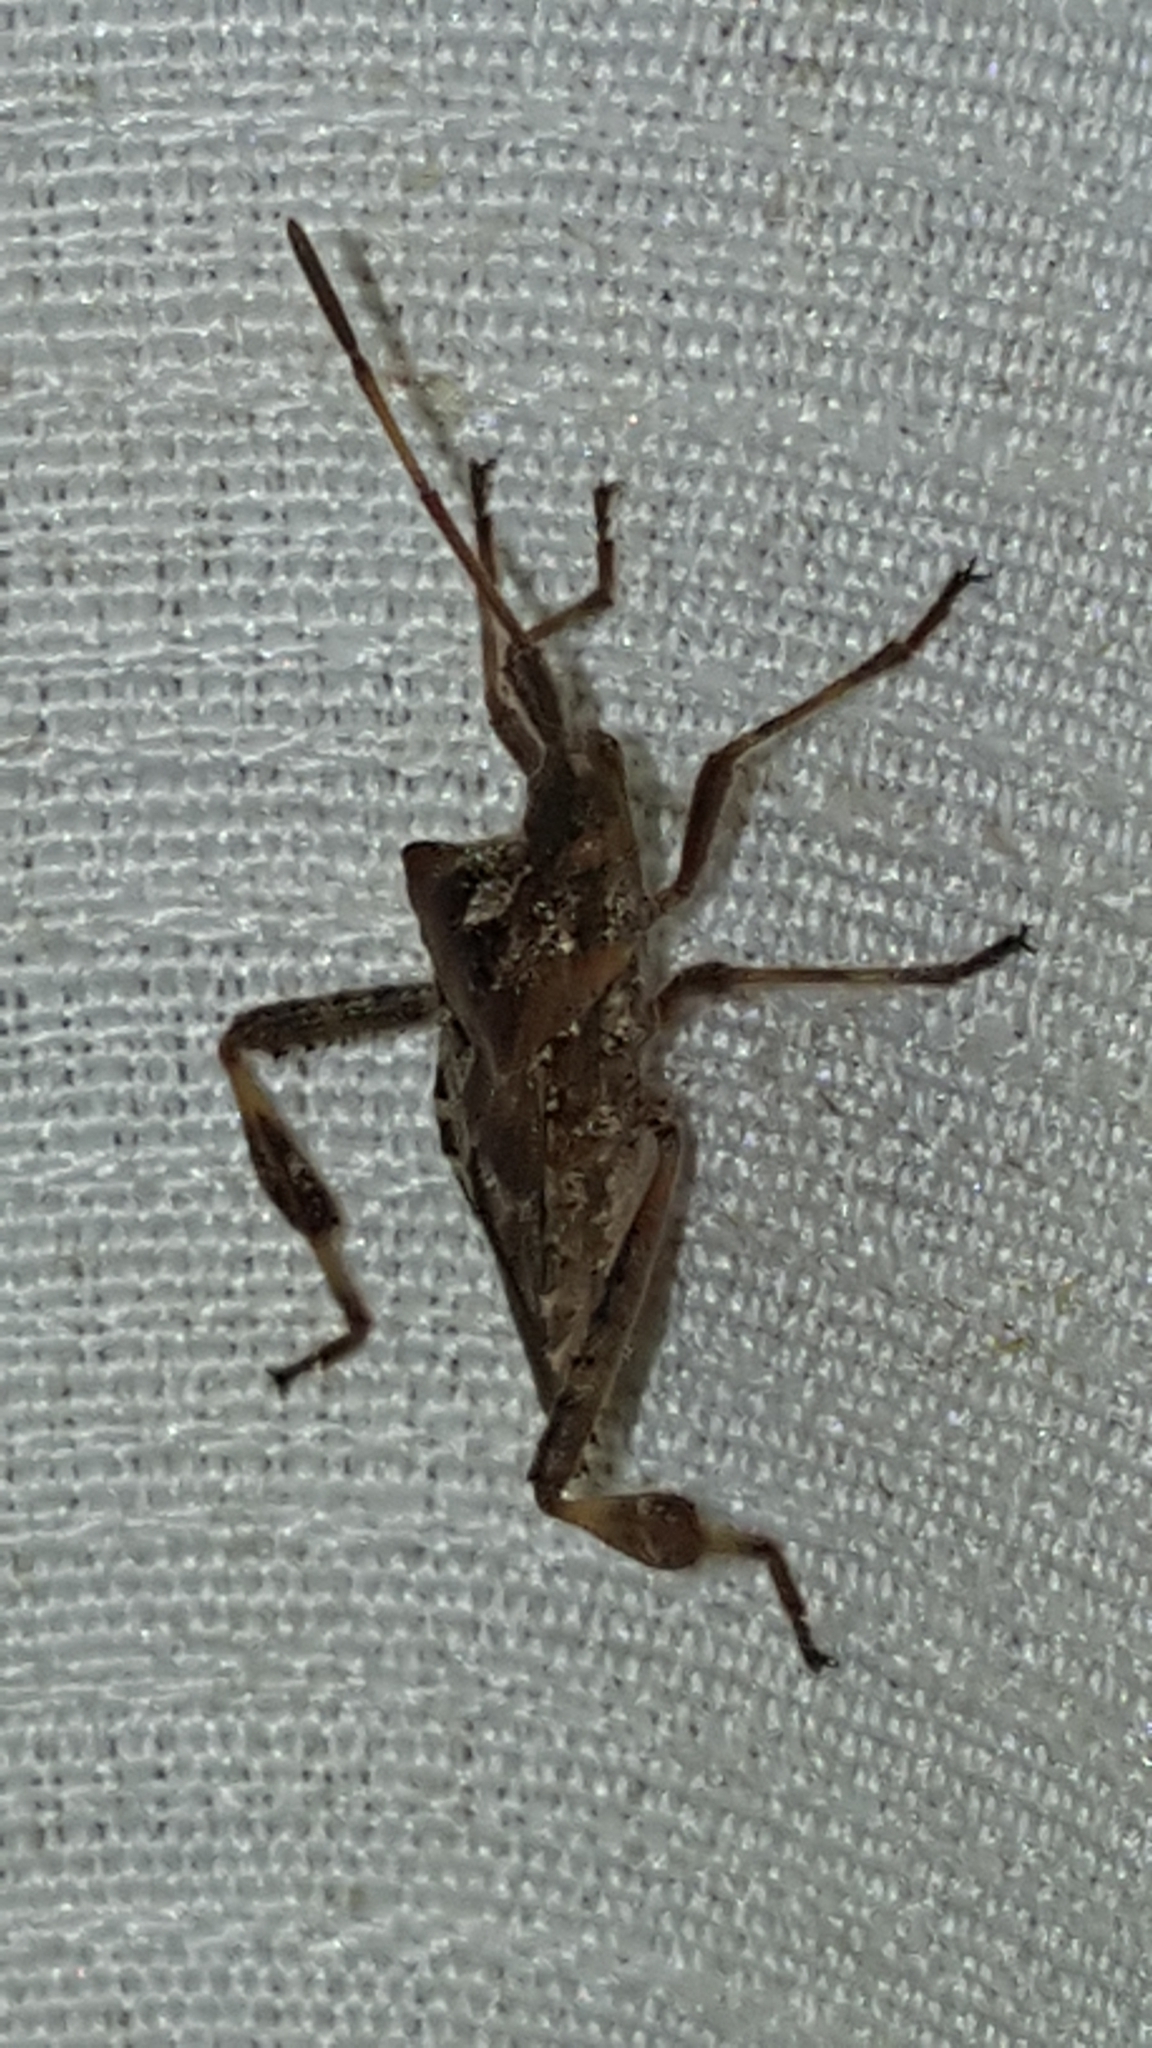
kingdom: Animalia
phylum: Arthropoda
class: Insecta
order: Hemiptera
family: Coreidae
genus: Leptoglossus
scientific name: Leptoglossus occidentalis
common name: Western conifer-seed bug
